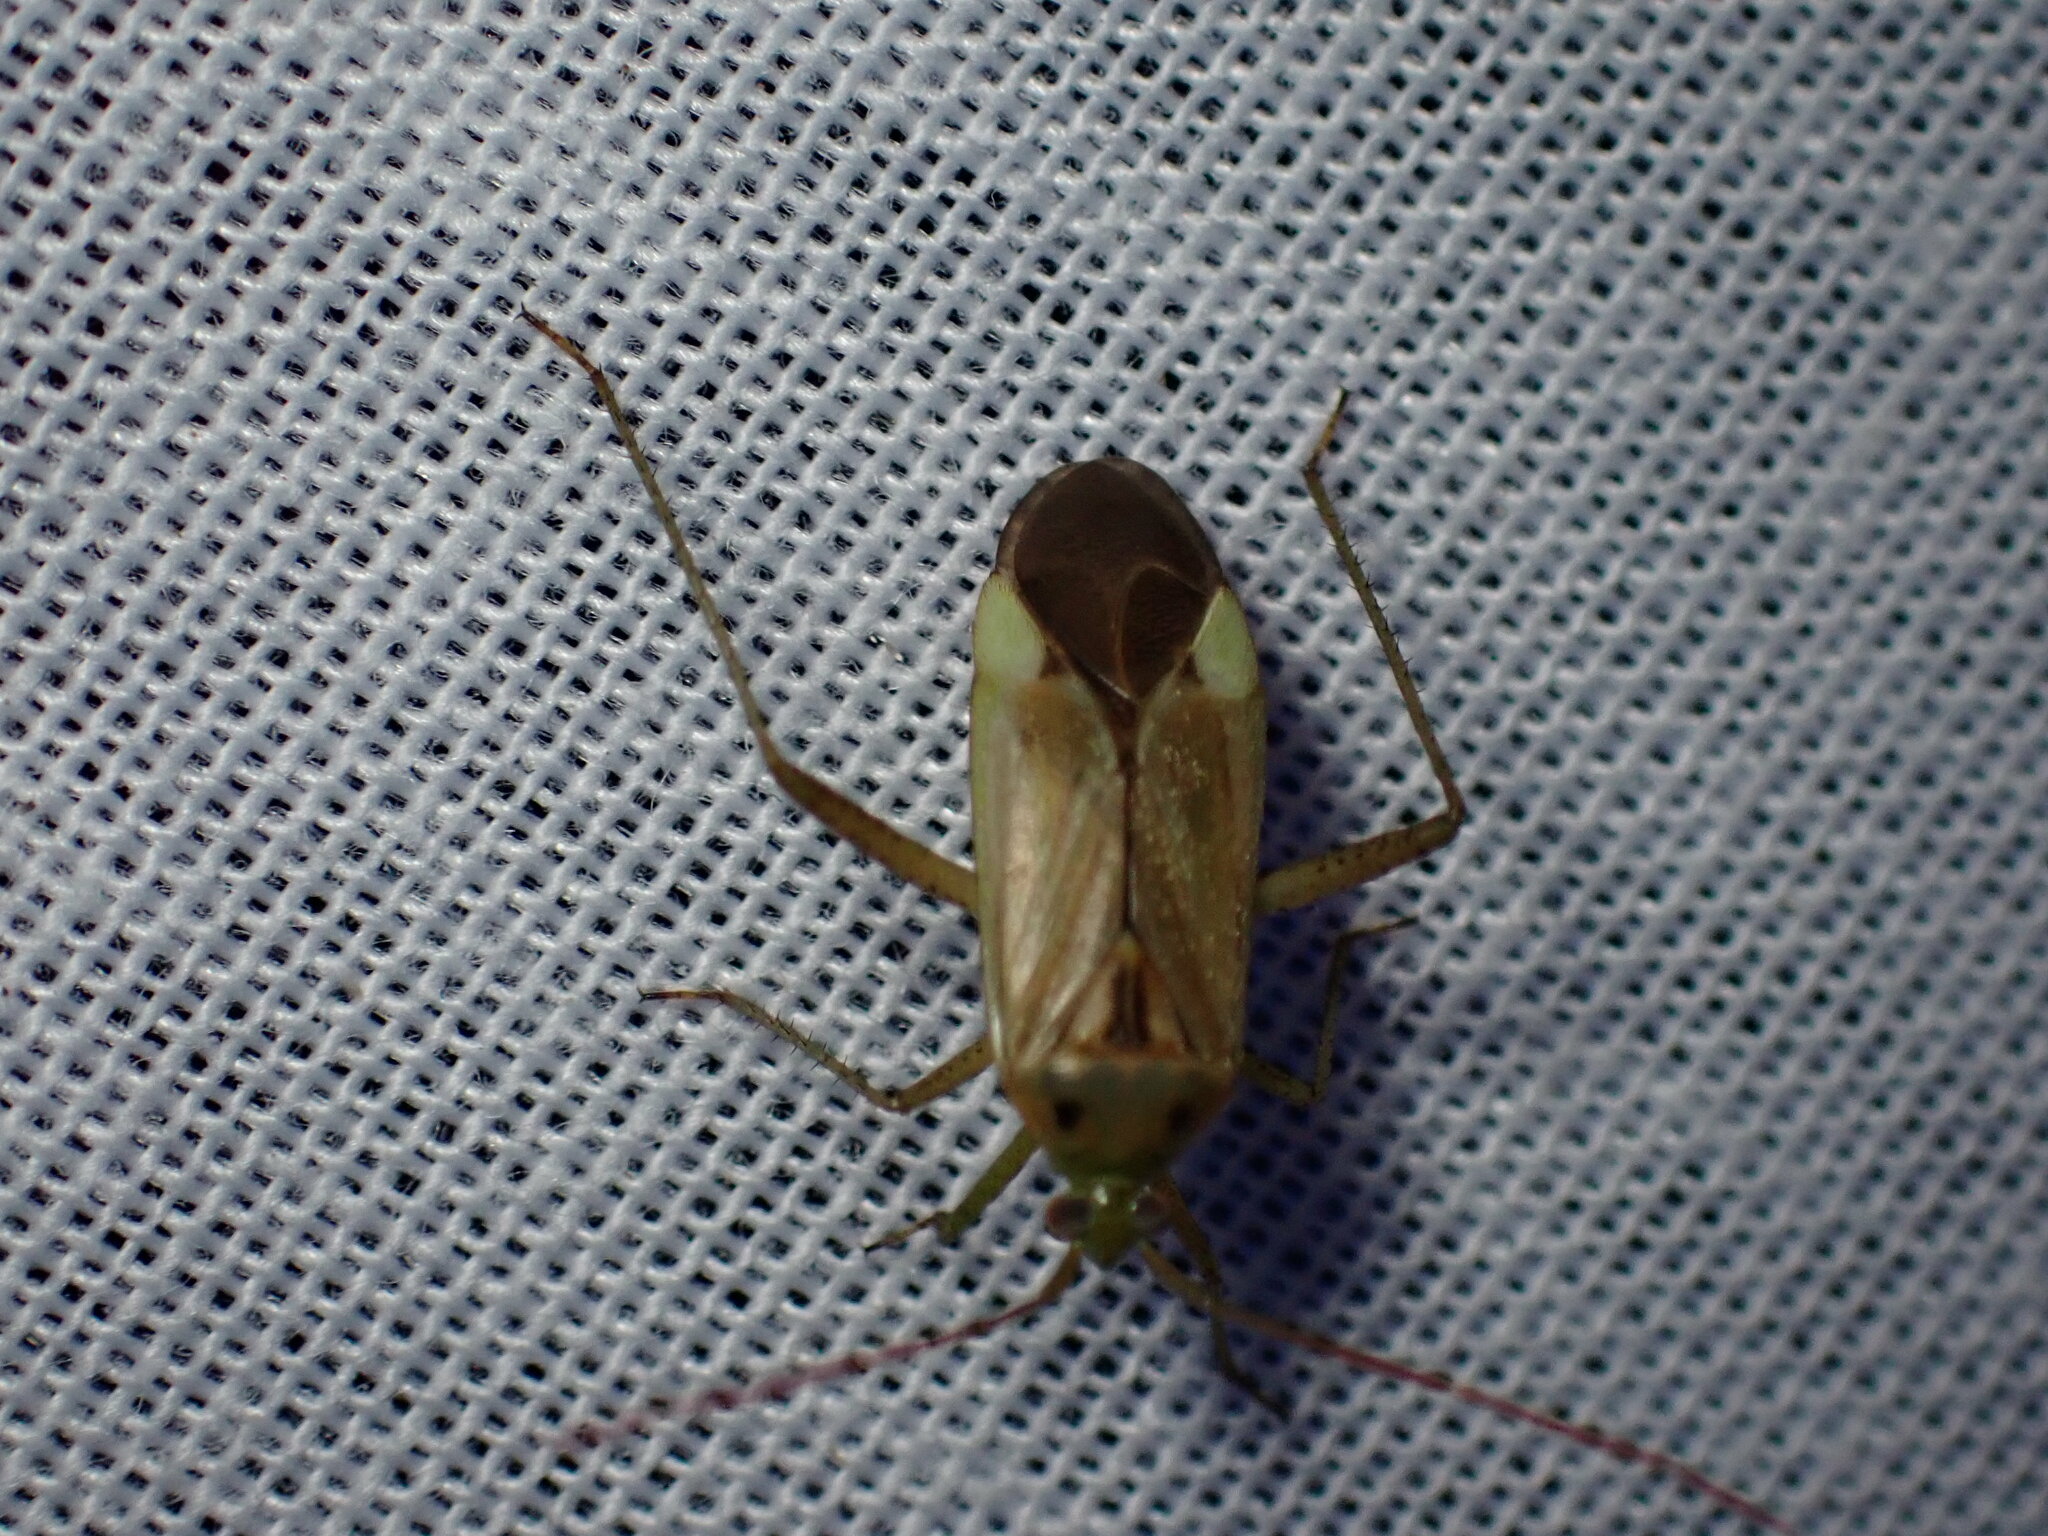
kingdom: Animalia
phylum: Arthropoda
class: Insecta
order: Hemiptera
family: Miridae
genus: Adelphocoris
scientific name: Adelphocoris lineolatus
